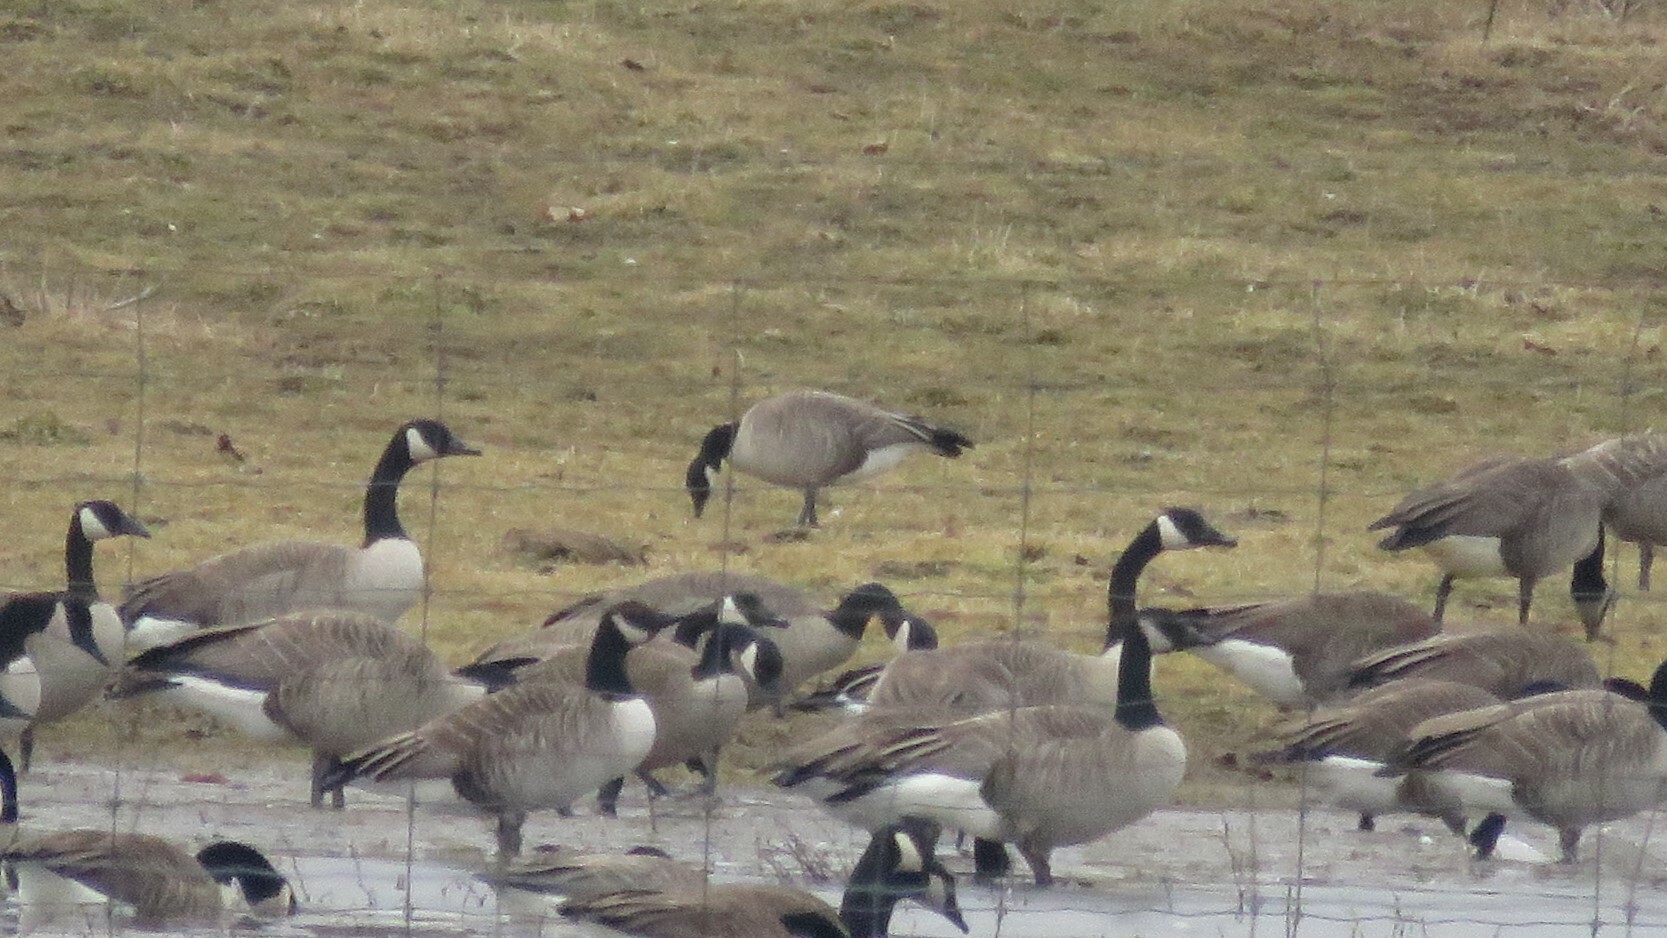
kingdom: Animalia
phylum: Chordata
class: Aves
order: Anseriformes
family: Anatidae
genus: Branta
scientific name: Branta hutchinsii
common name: Cackling goose
